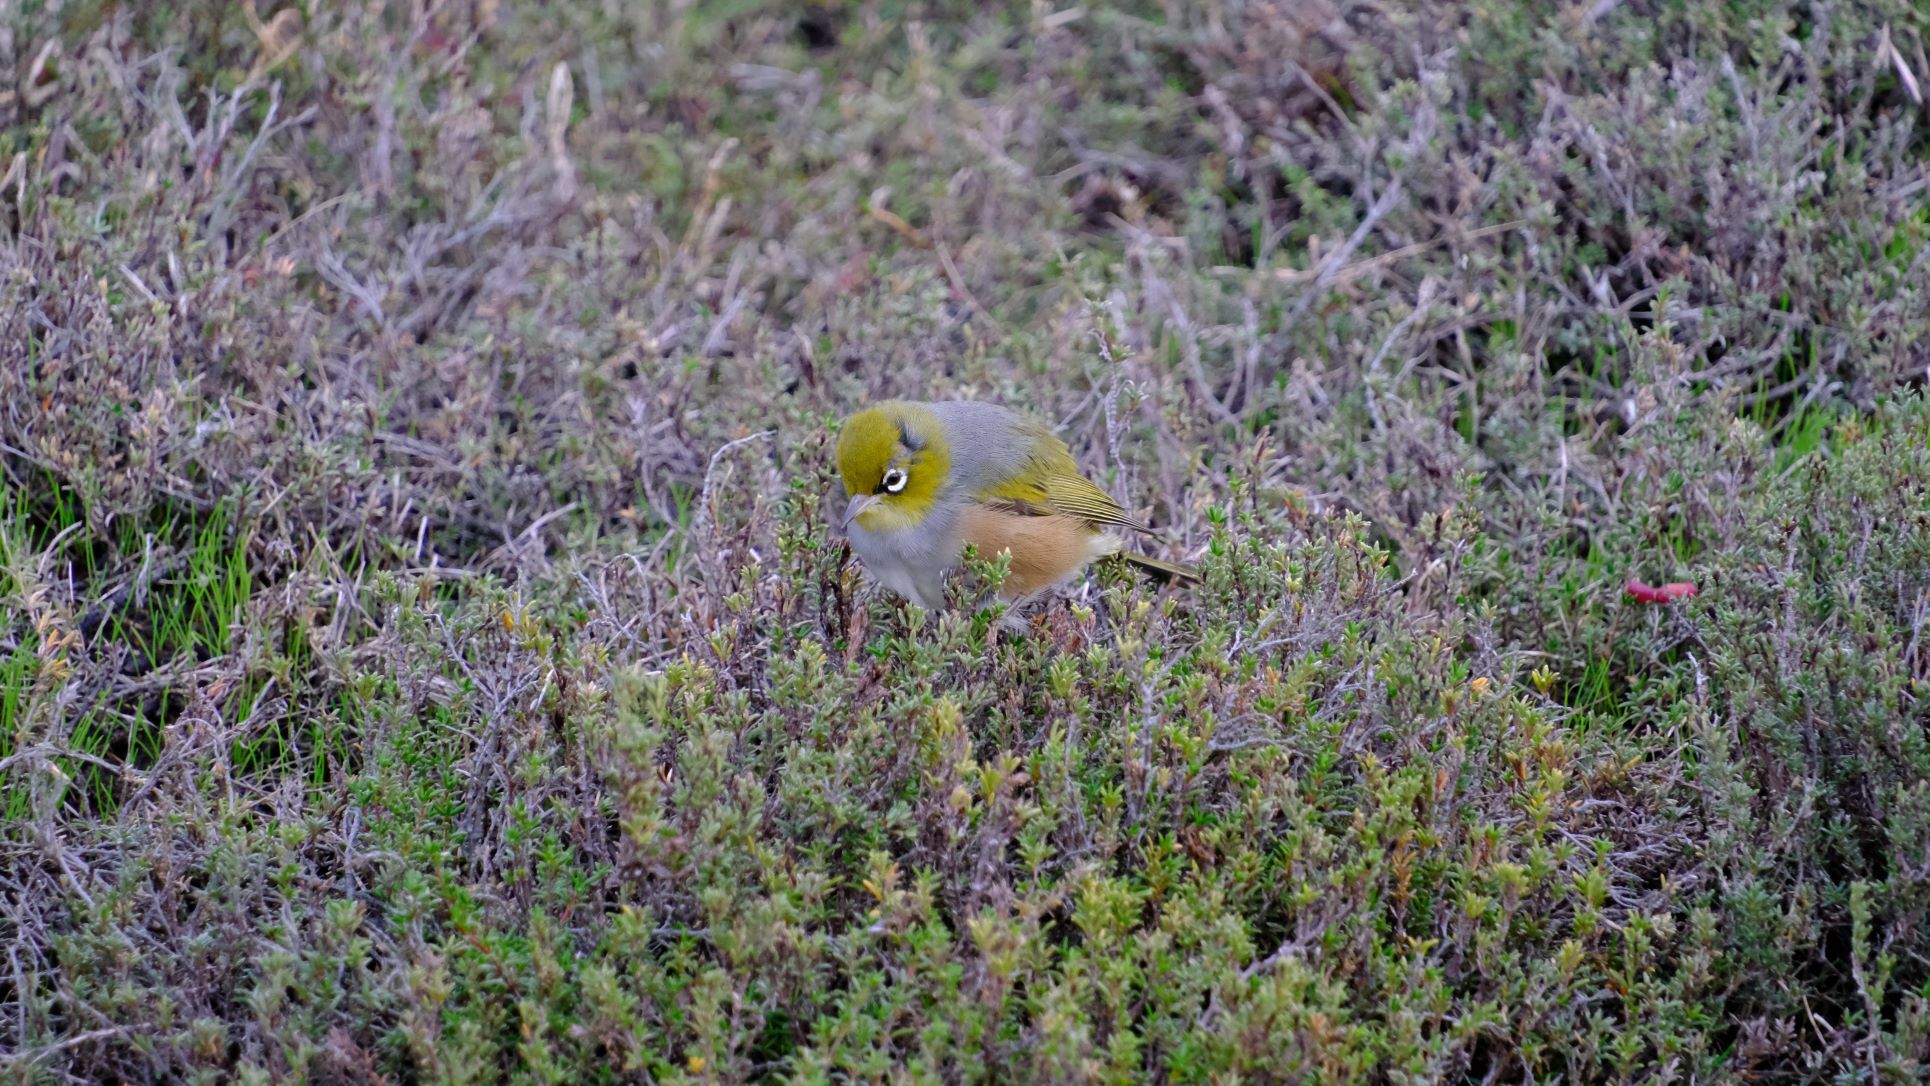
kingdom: Animalia
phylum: Chordata
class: Aves
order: Passeriformes
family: Zosteropidae
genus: Zosterops
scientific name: Zosterops lateralis
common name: Silvereye
